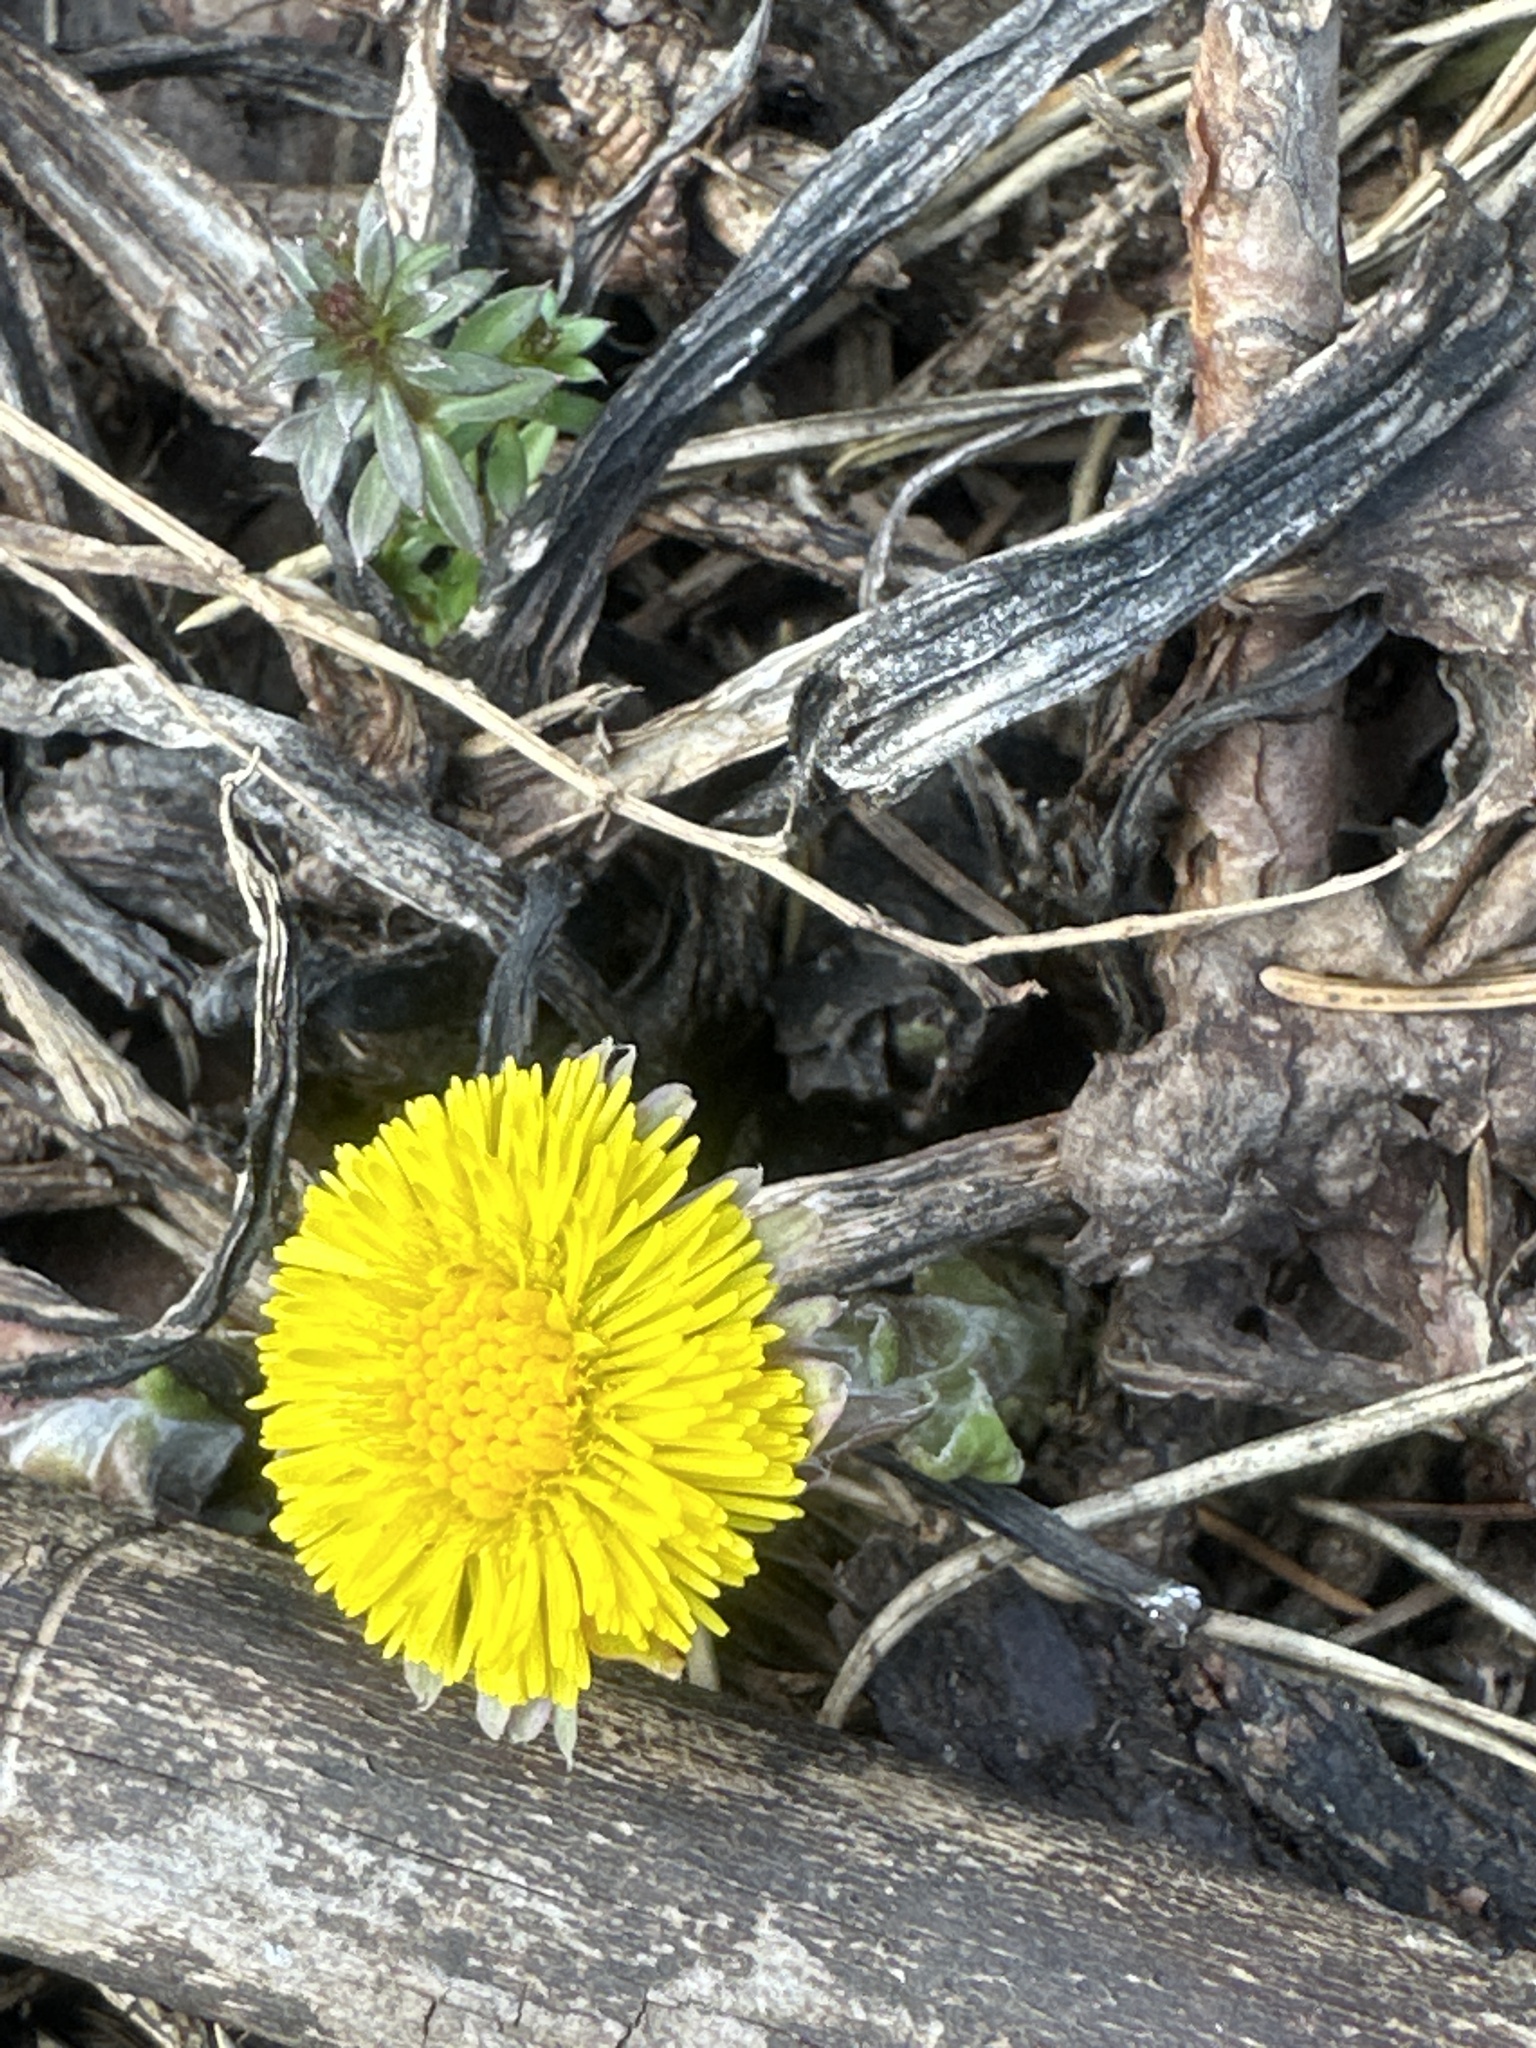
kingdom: Plantae
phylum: Tracheophyta
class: Magnoliopsida
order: Asterales
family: Asteraceae
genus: Tussilago
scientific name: Tussilago farfara
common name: Coltsfoot
